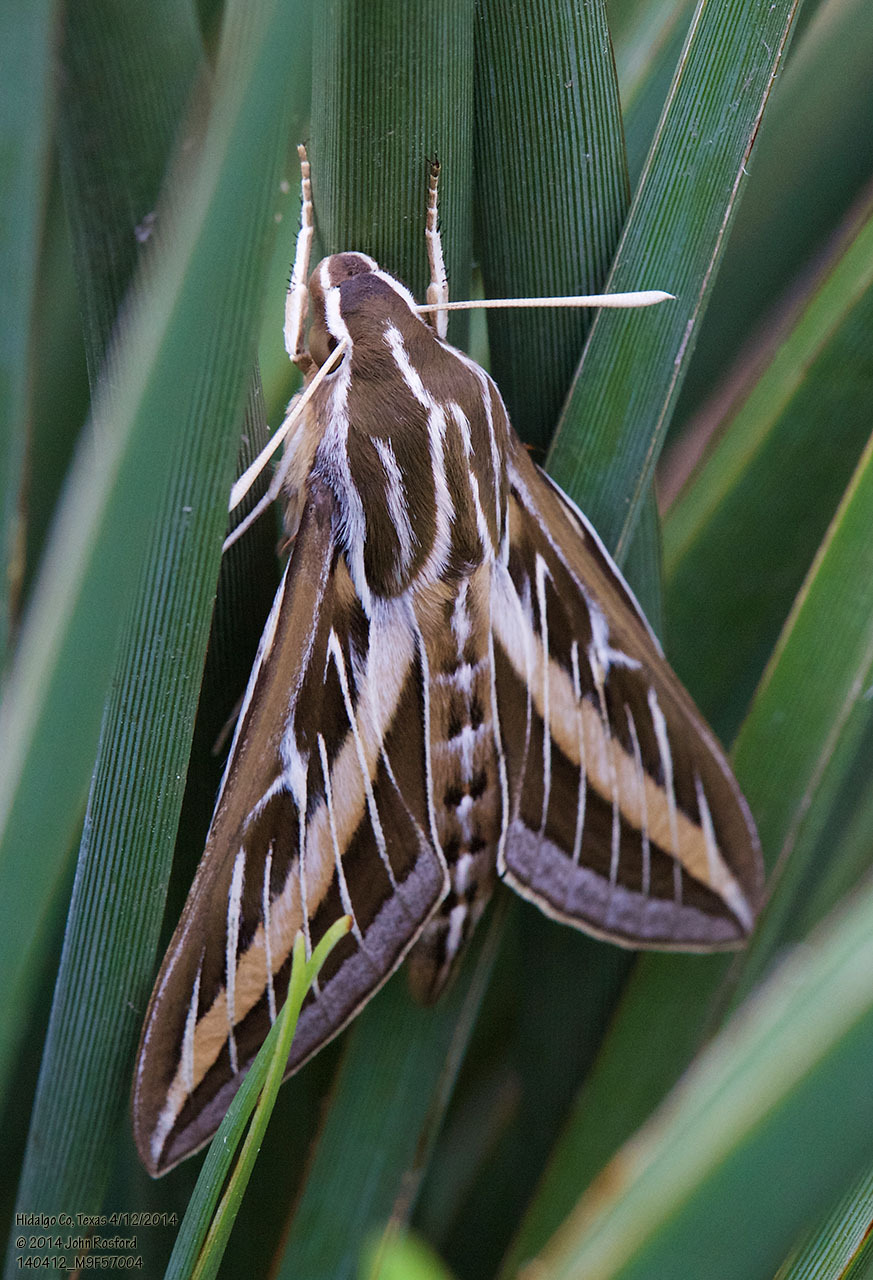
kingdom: Animalia
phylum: Arthropoda
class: Insecta
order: Lepidoptera
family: Sphingidae
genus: Hyles
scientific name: Hyles lineata
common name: White-lined sphinx
